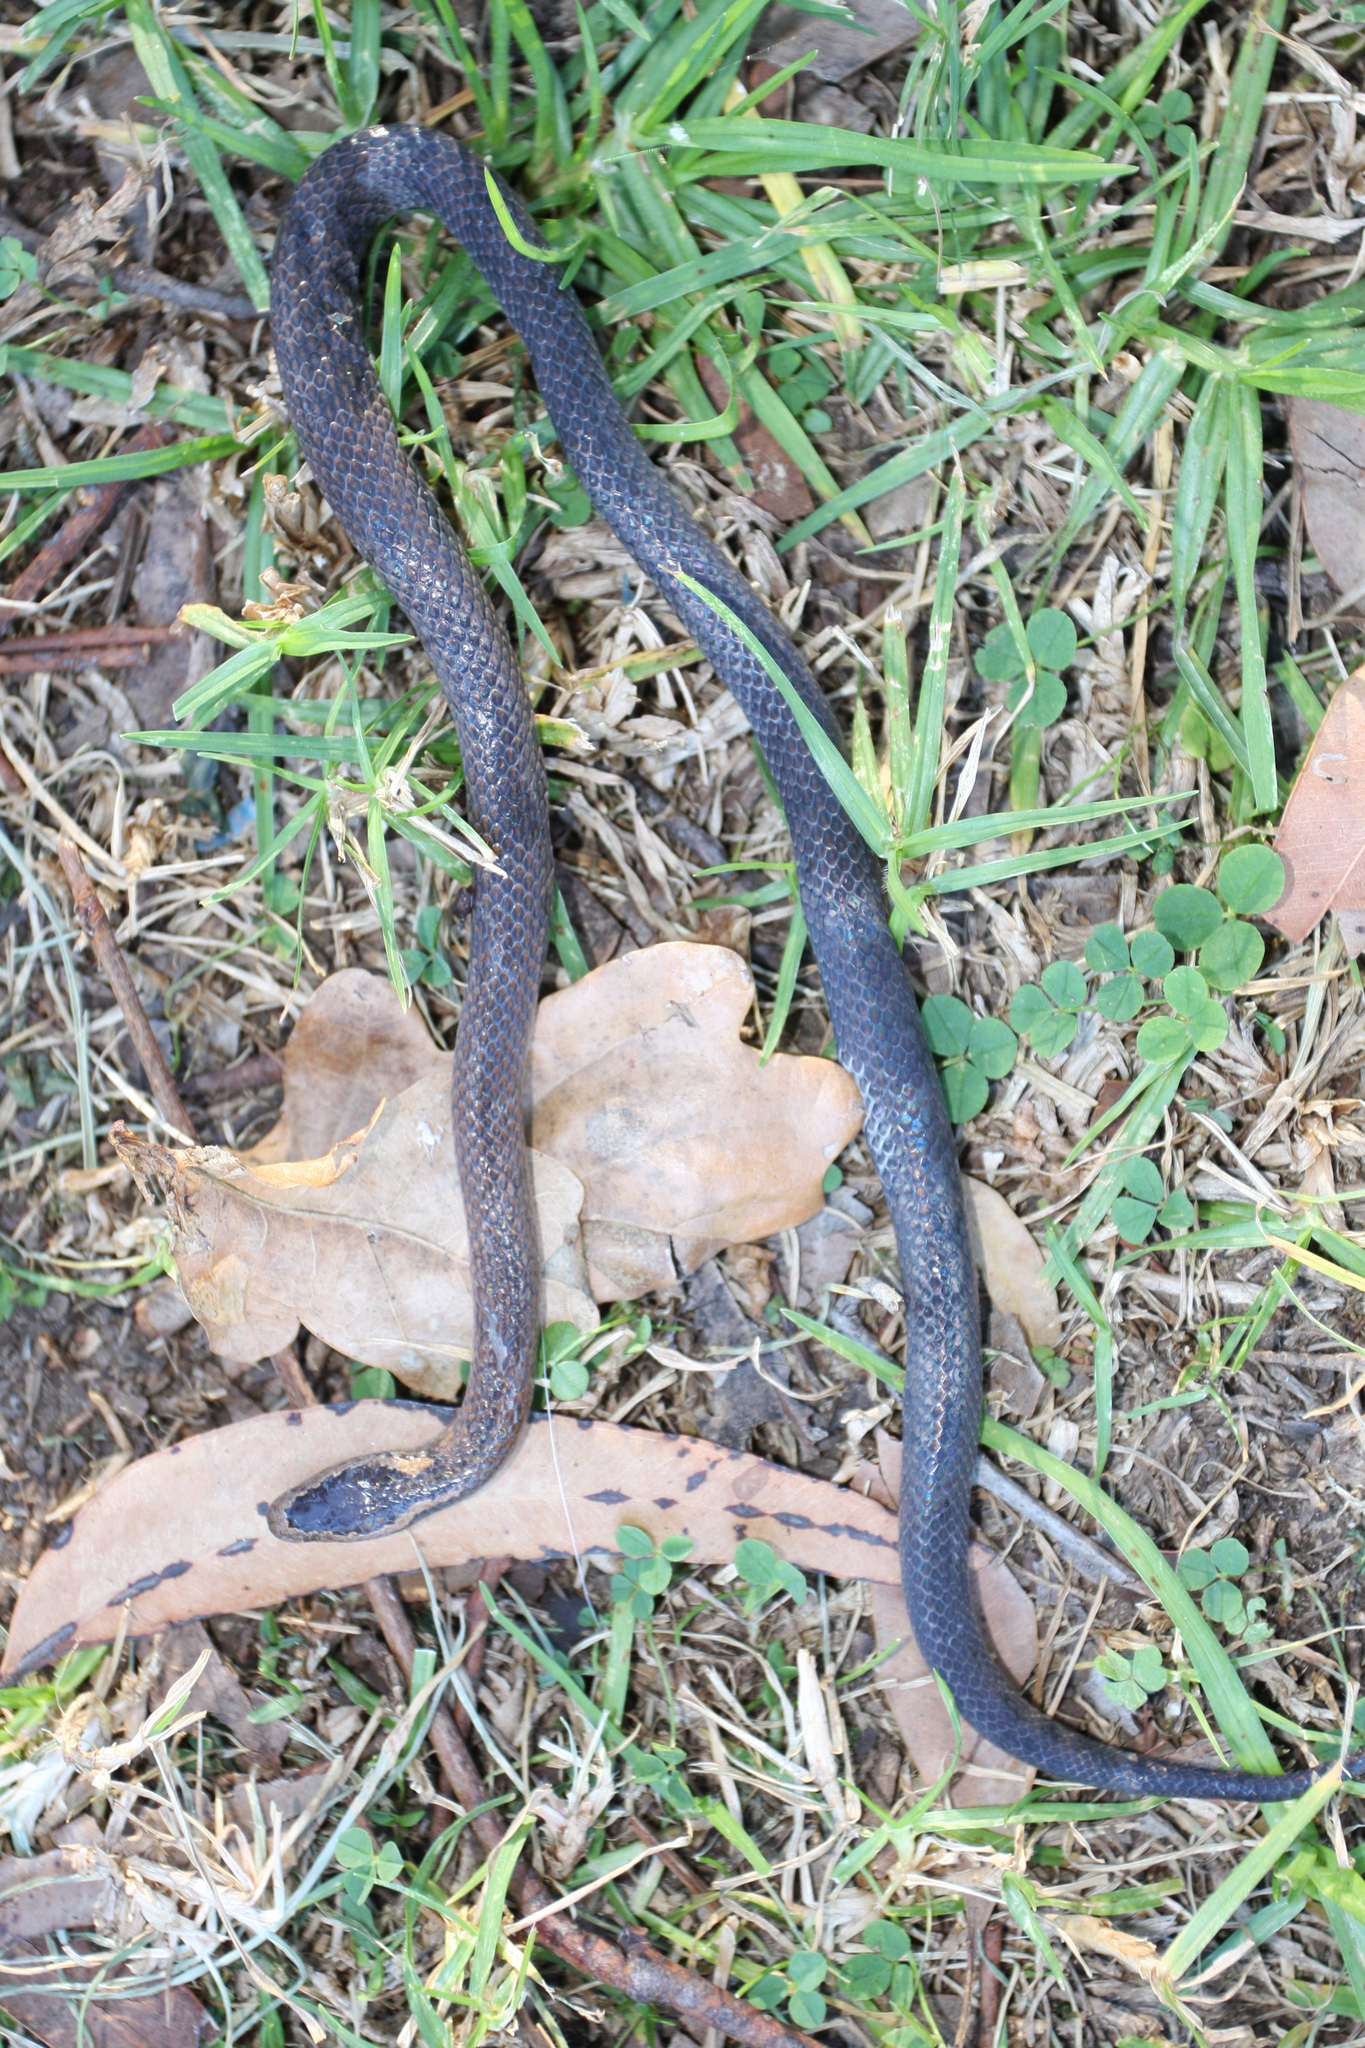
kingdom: Animalia
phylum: Chordata
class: Squamata
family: Elapidae
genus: Cacophis
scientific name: Cacophis squamulosus
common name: Golden crowned snake
